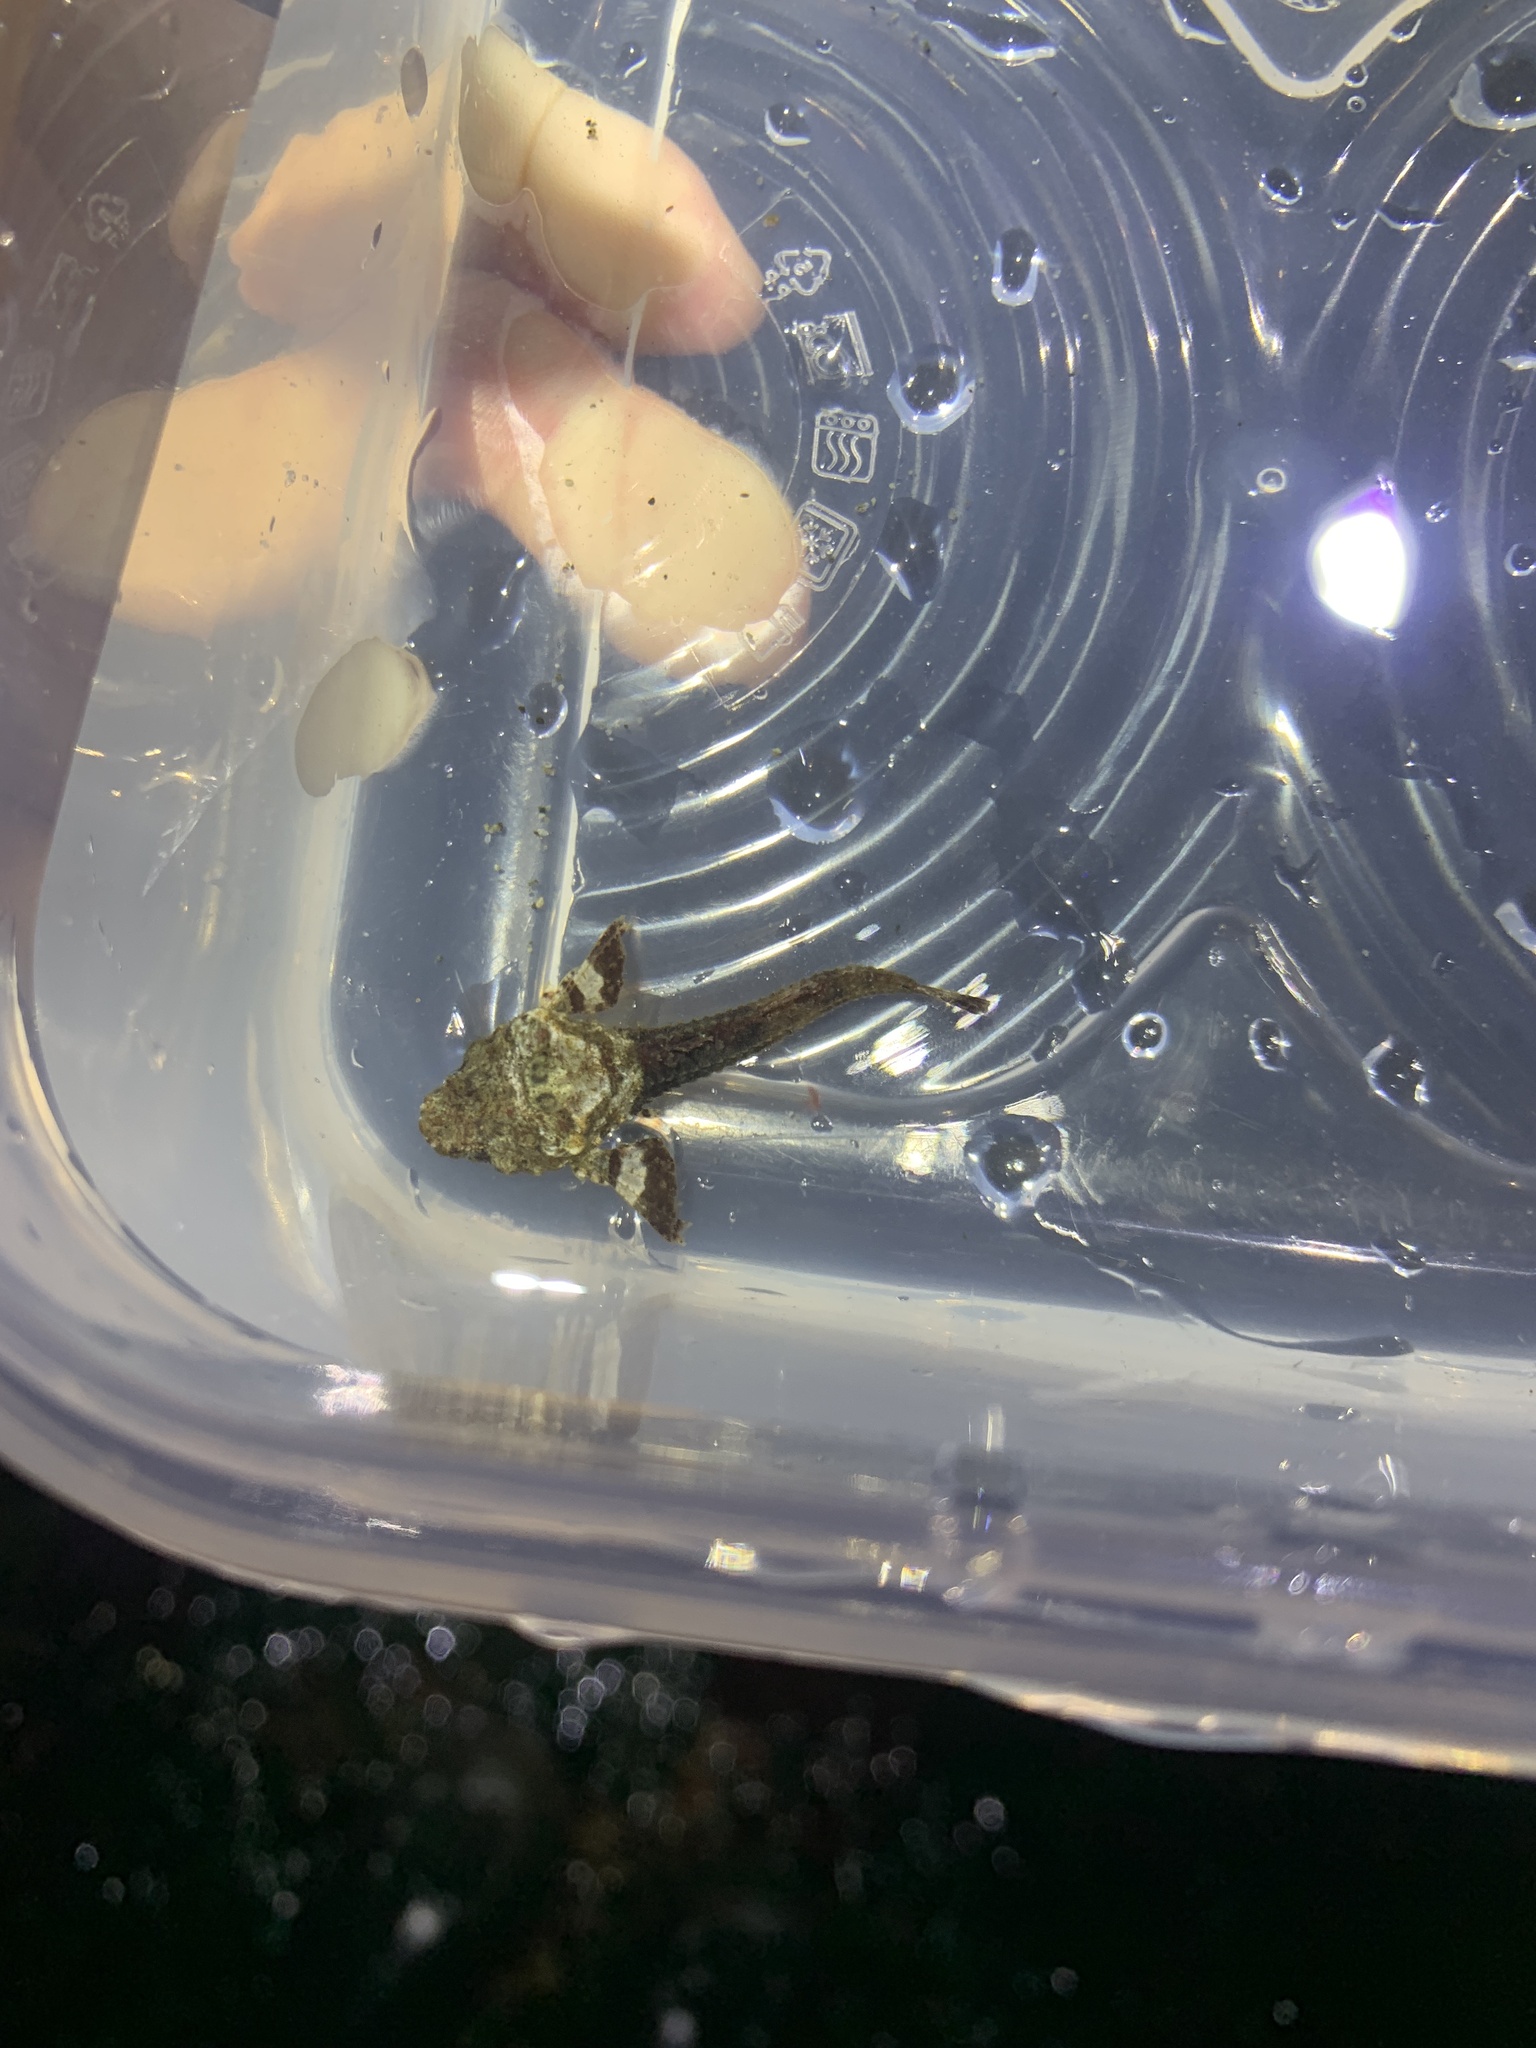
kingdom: Animalia
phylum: Chordata
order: Scorpaeniformes
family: Agonidae
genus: Bothragonus
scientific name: Bothragonus swanii
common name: Rockhead
